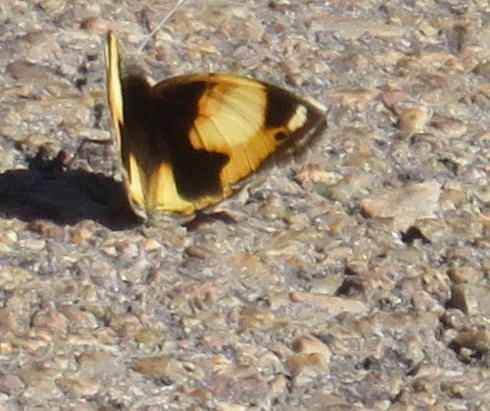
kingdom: Animalia
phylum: Arthropoda
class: Insecta
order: Lepidoptera
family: Nymphalidae
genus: Junonia
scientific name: Junonia hierta
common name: Yellow pansy
